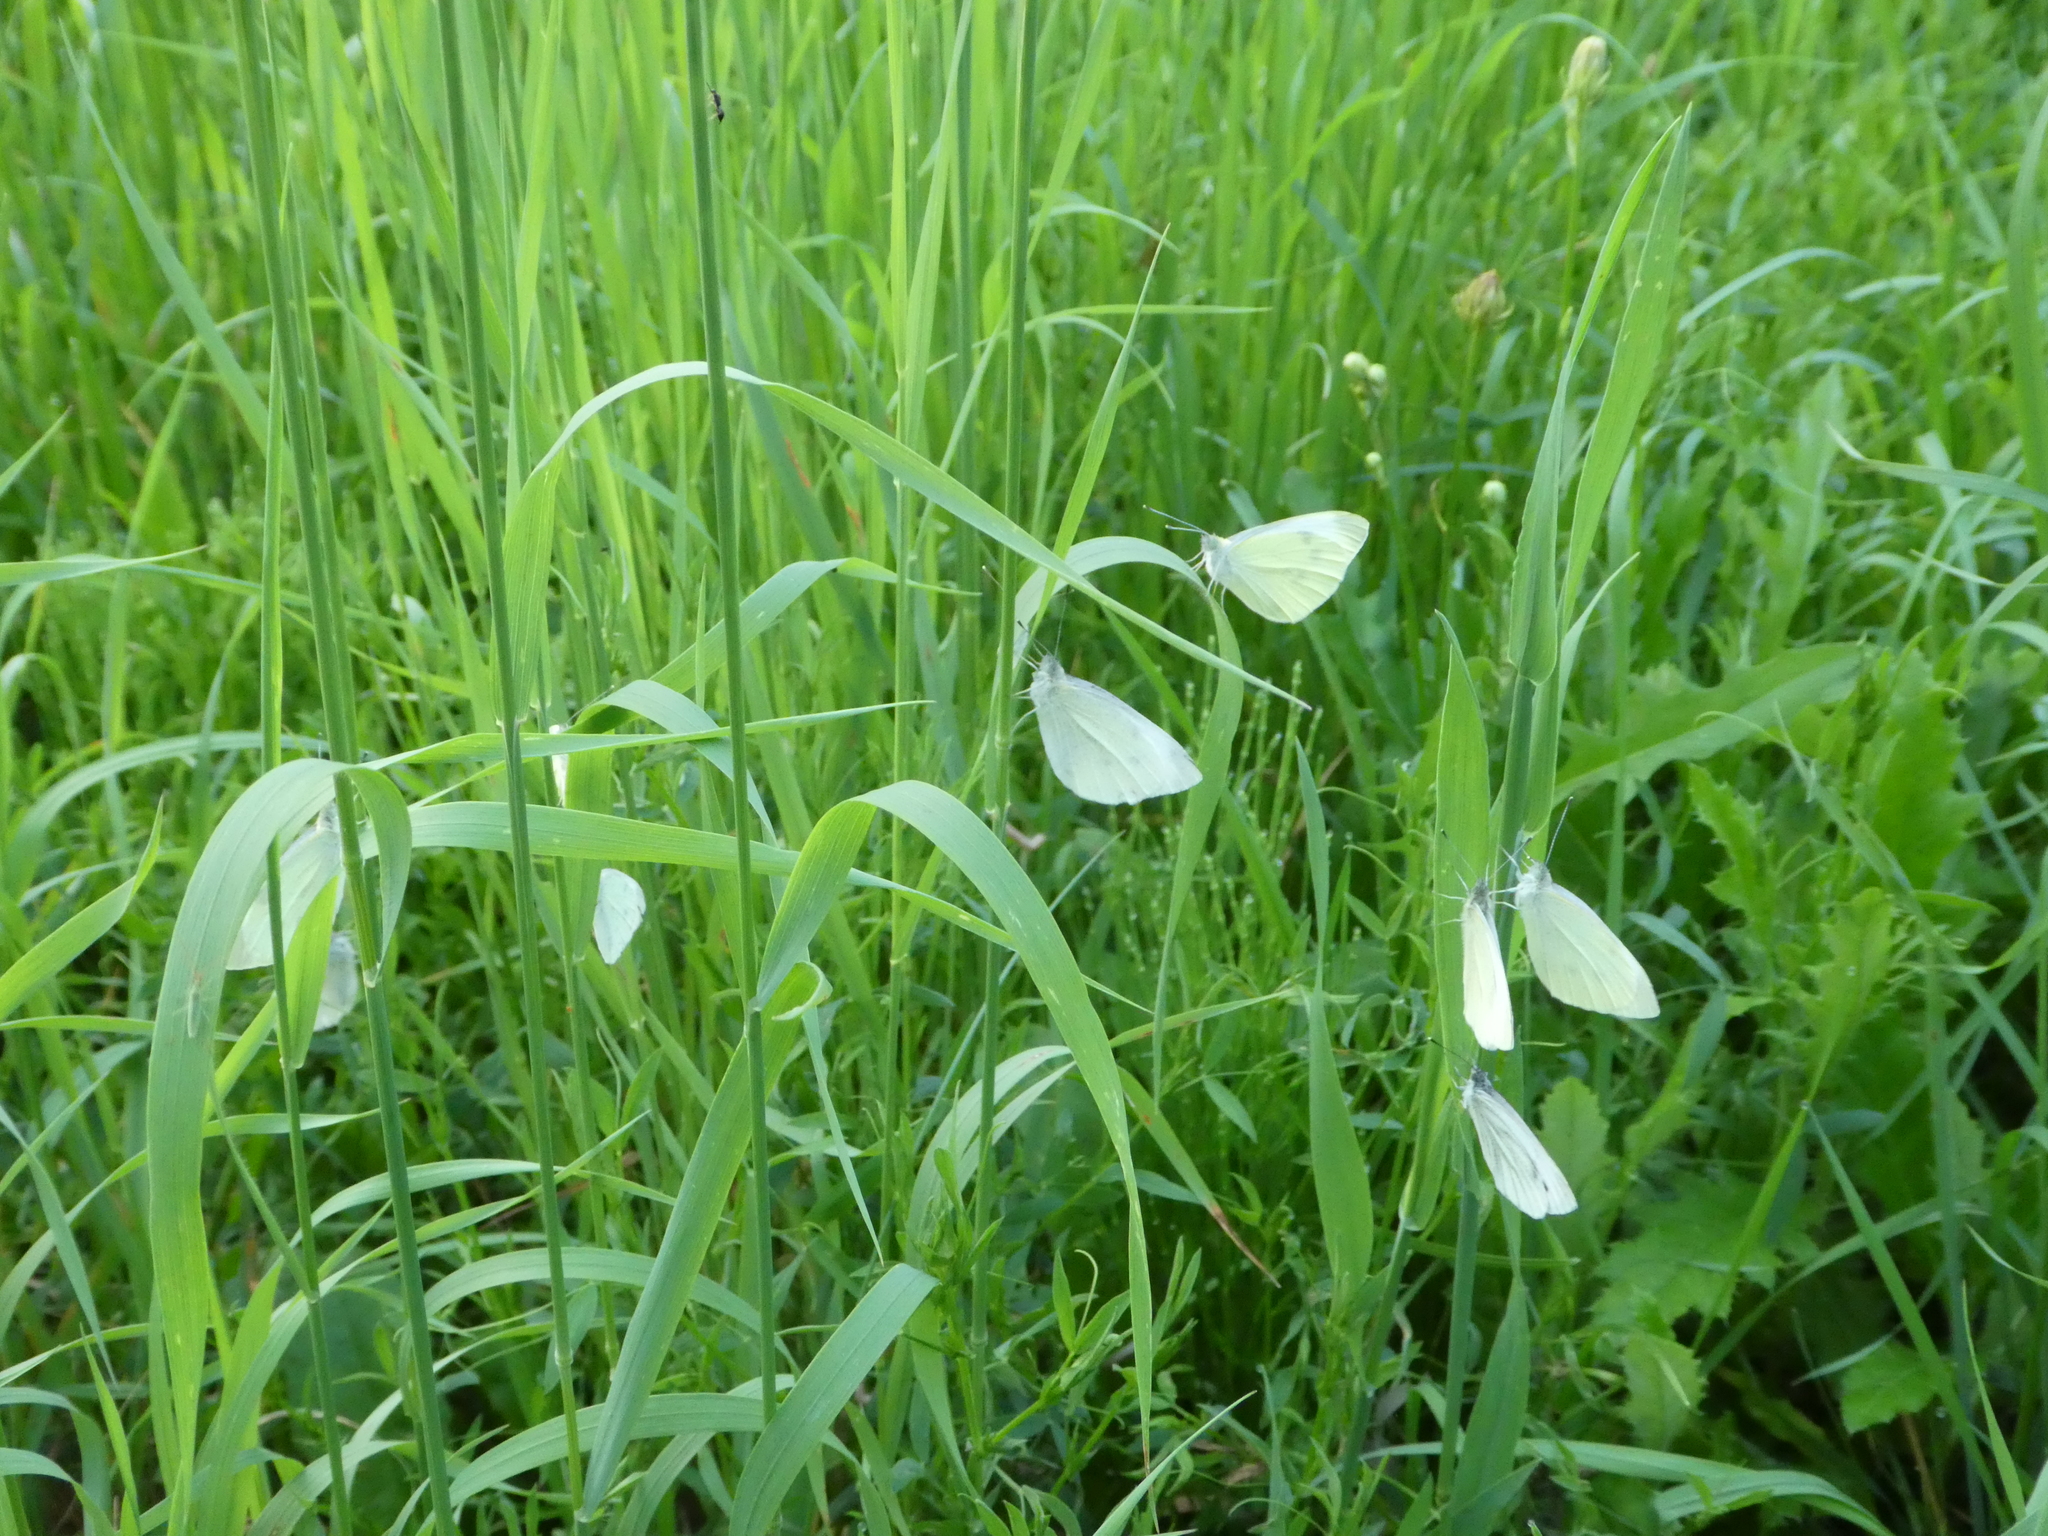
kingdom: Animalia
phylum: Arthropoda
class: Insecta
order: Lepidoptera
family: Pieridae
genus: Pieris
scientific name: Pieris rapae
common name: Small white
